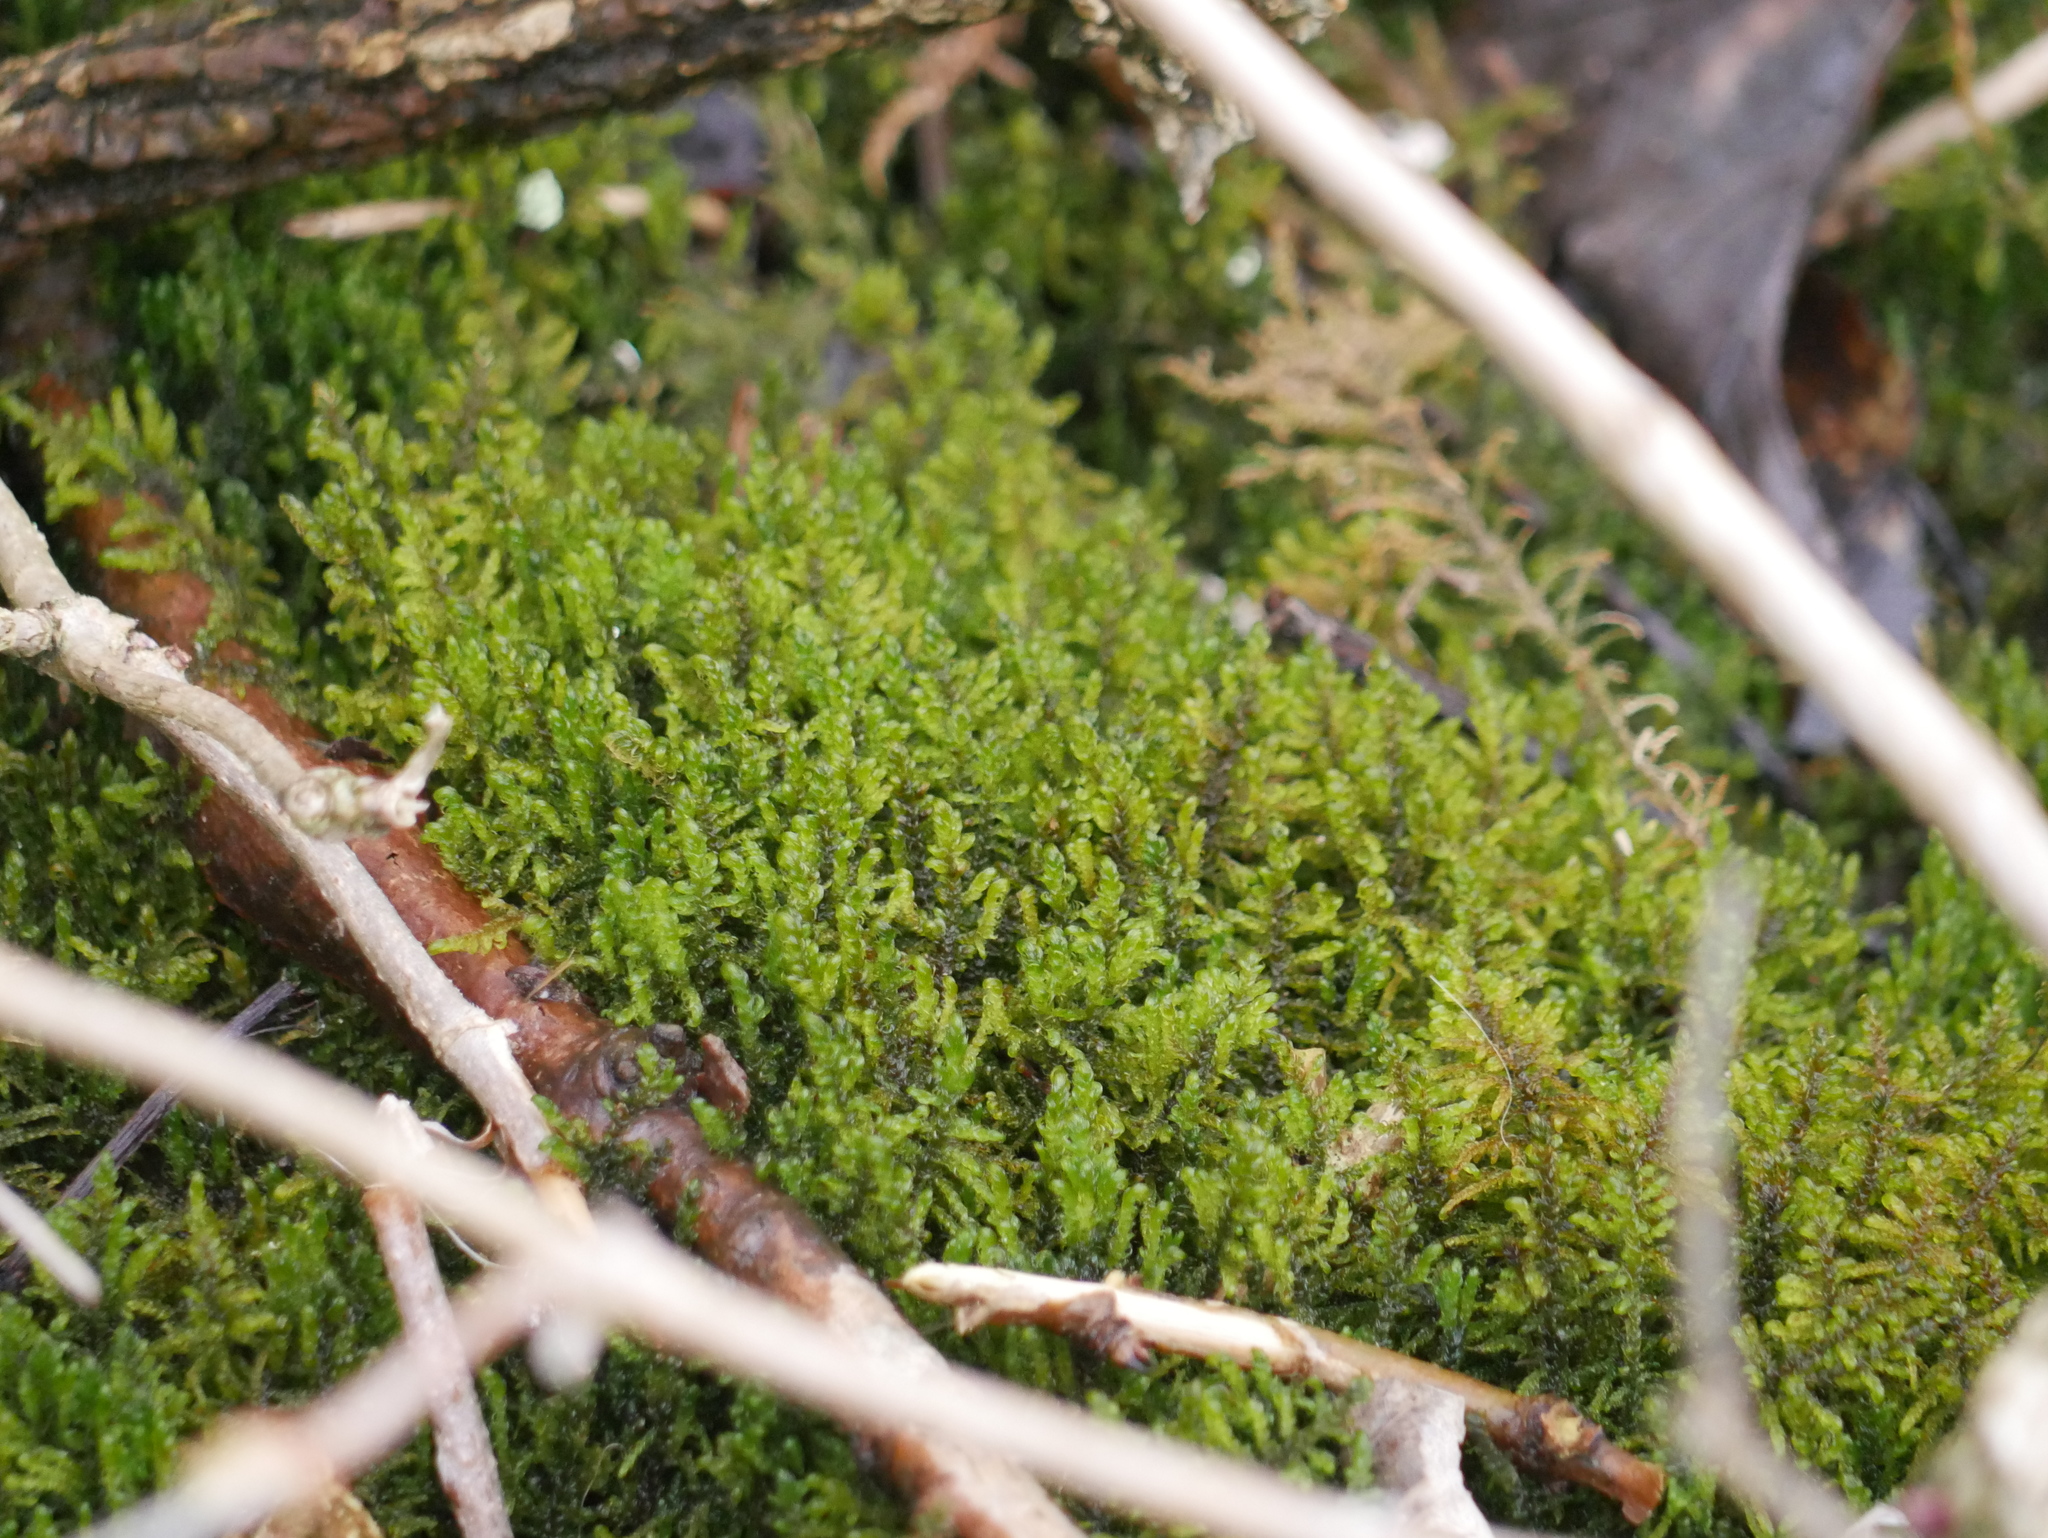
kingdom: Plantae
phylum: Bryophyta
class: Bryopsida
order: Hypnales
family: Amblystegiaceae
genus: Palustriella
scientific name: Palustriella commutata
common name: Curled hook-moss
